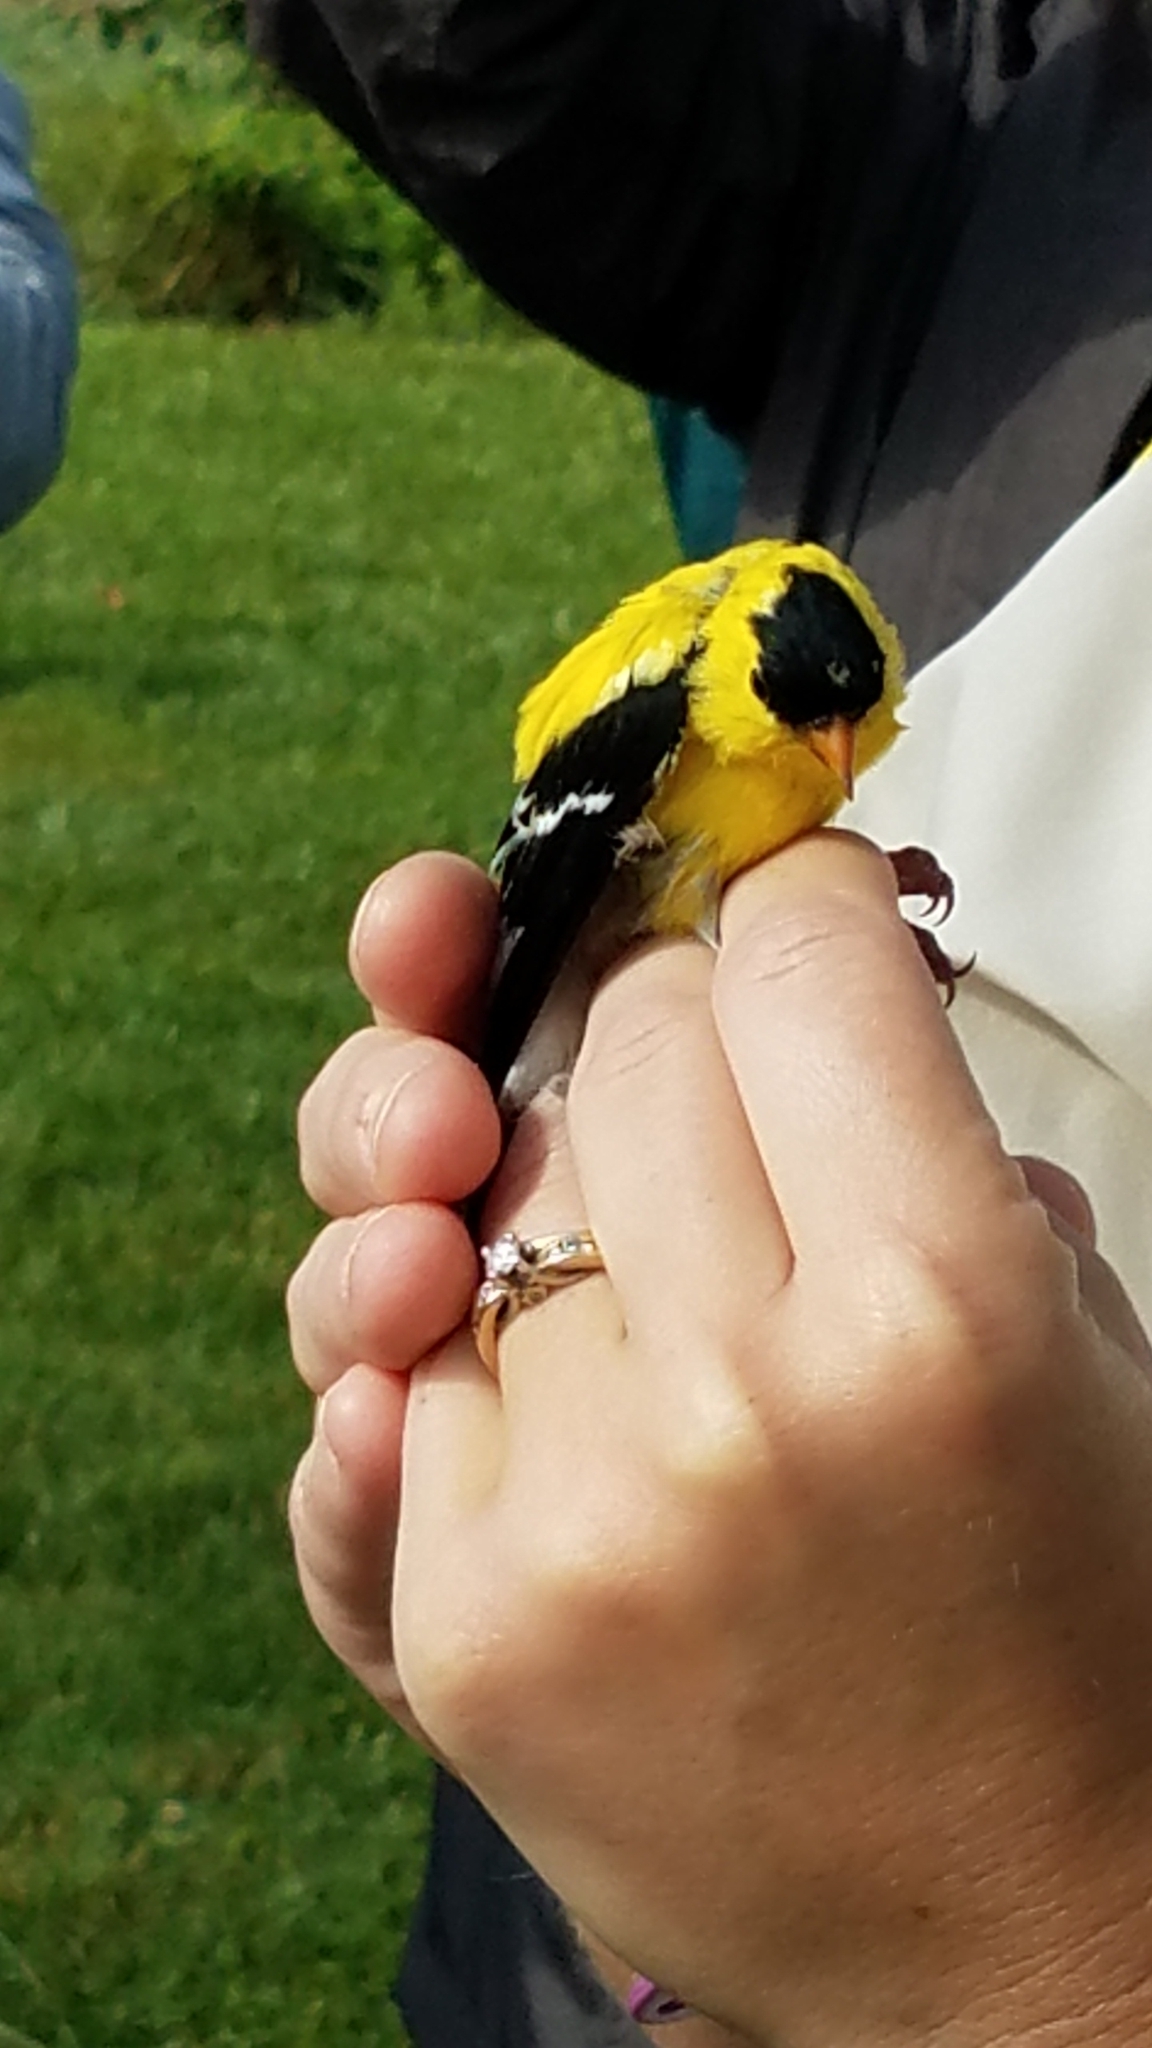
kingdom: Animalia
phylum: Chordata
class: Aves
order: Passeriformes
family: Fringillidae
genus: Spinus
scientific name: Spinus tristis
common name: American goldfinch
